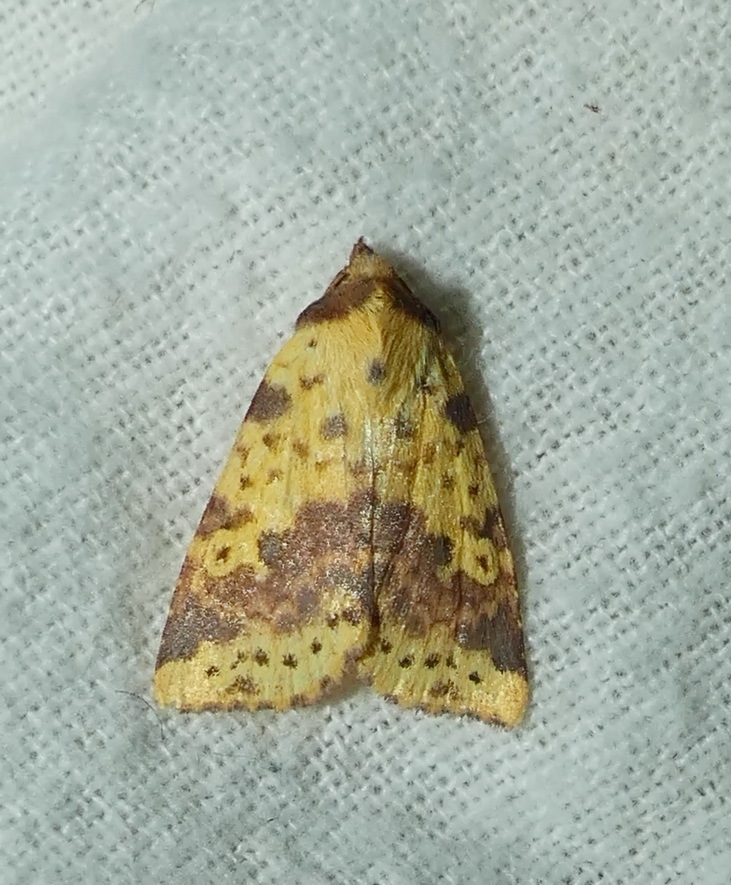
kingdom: Animalia
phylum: Arthropoda
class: Insecta
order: Lepidoptera
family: Noctuidae
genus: Xanthia
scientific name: Xanthia tatago
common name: Pink-banded sallow
